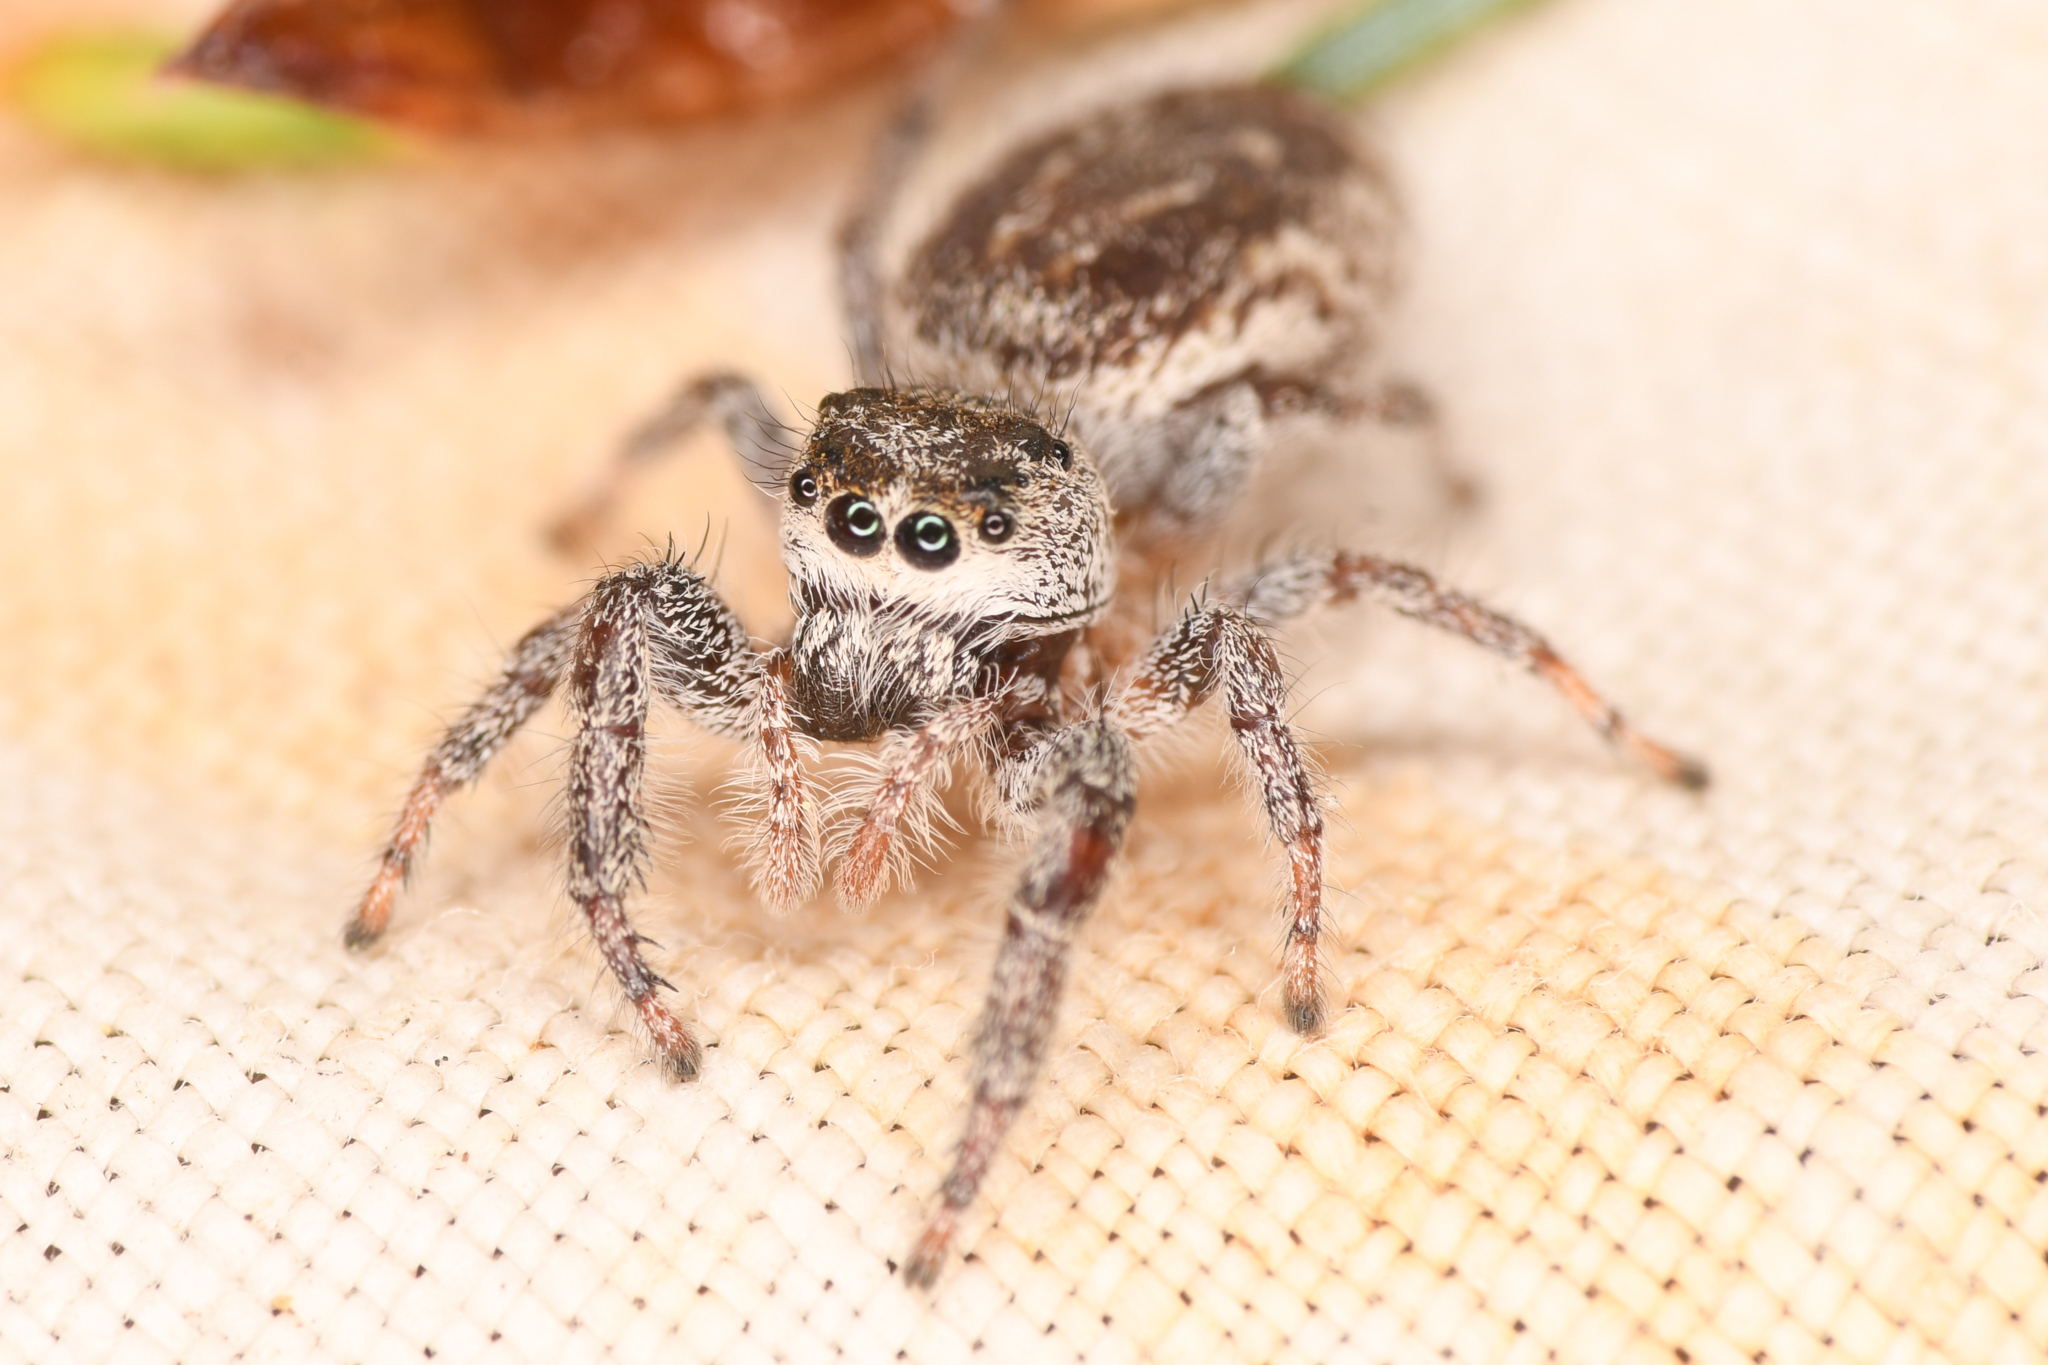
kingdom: Animalia
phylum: Arthropoda
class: Arachnida
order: Araneae
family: Salticidae
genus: Eris
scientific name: Eris militaris
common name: Bronze jumper
